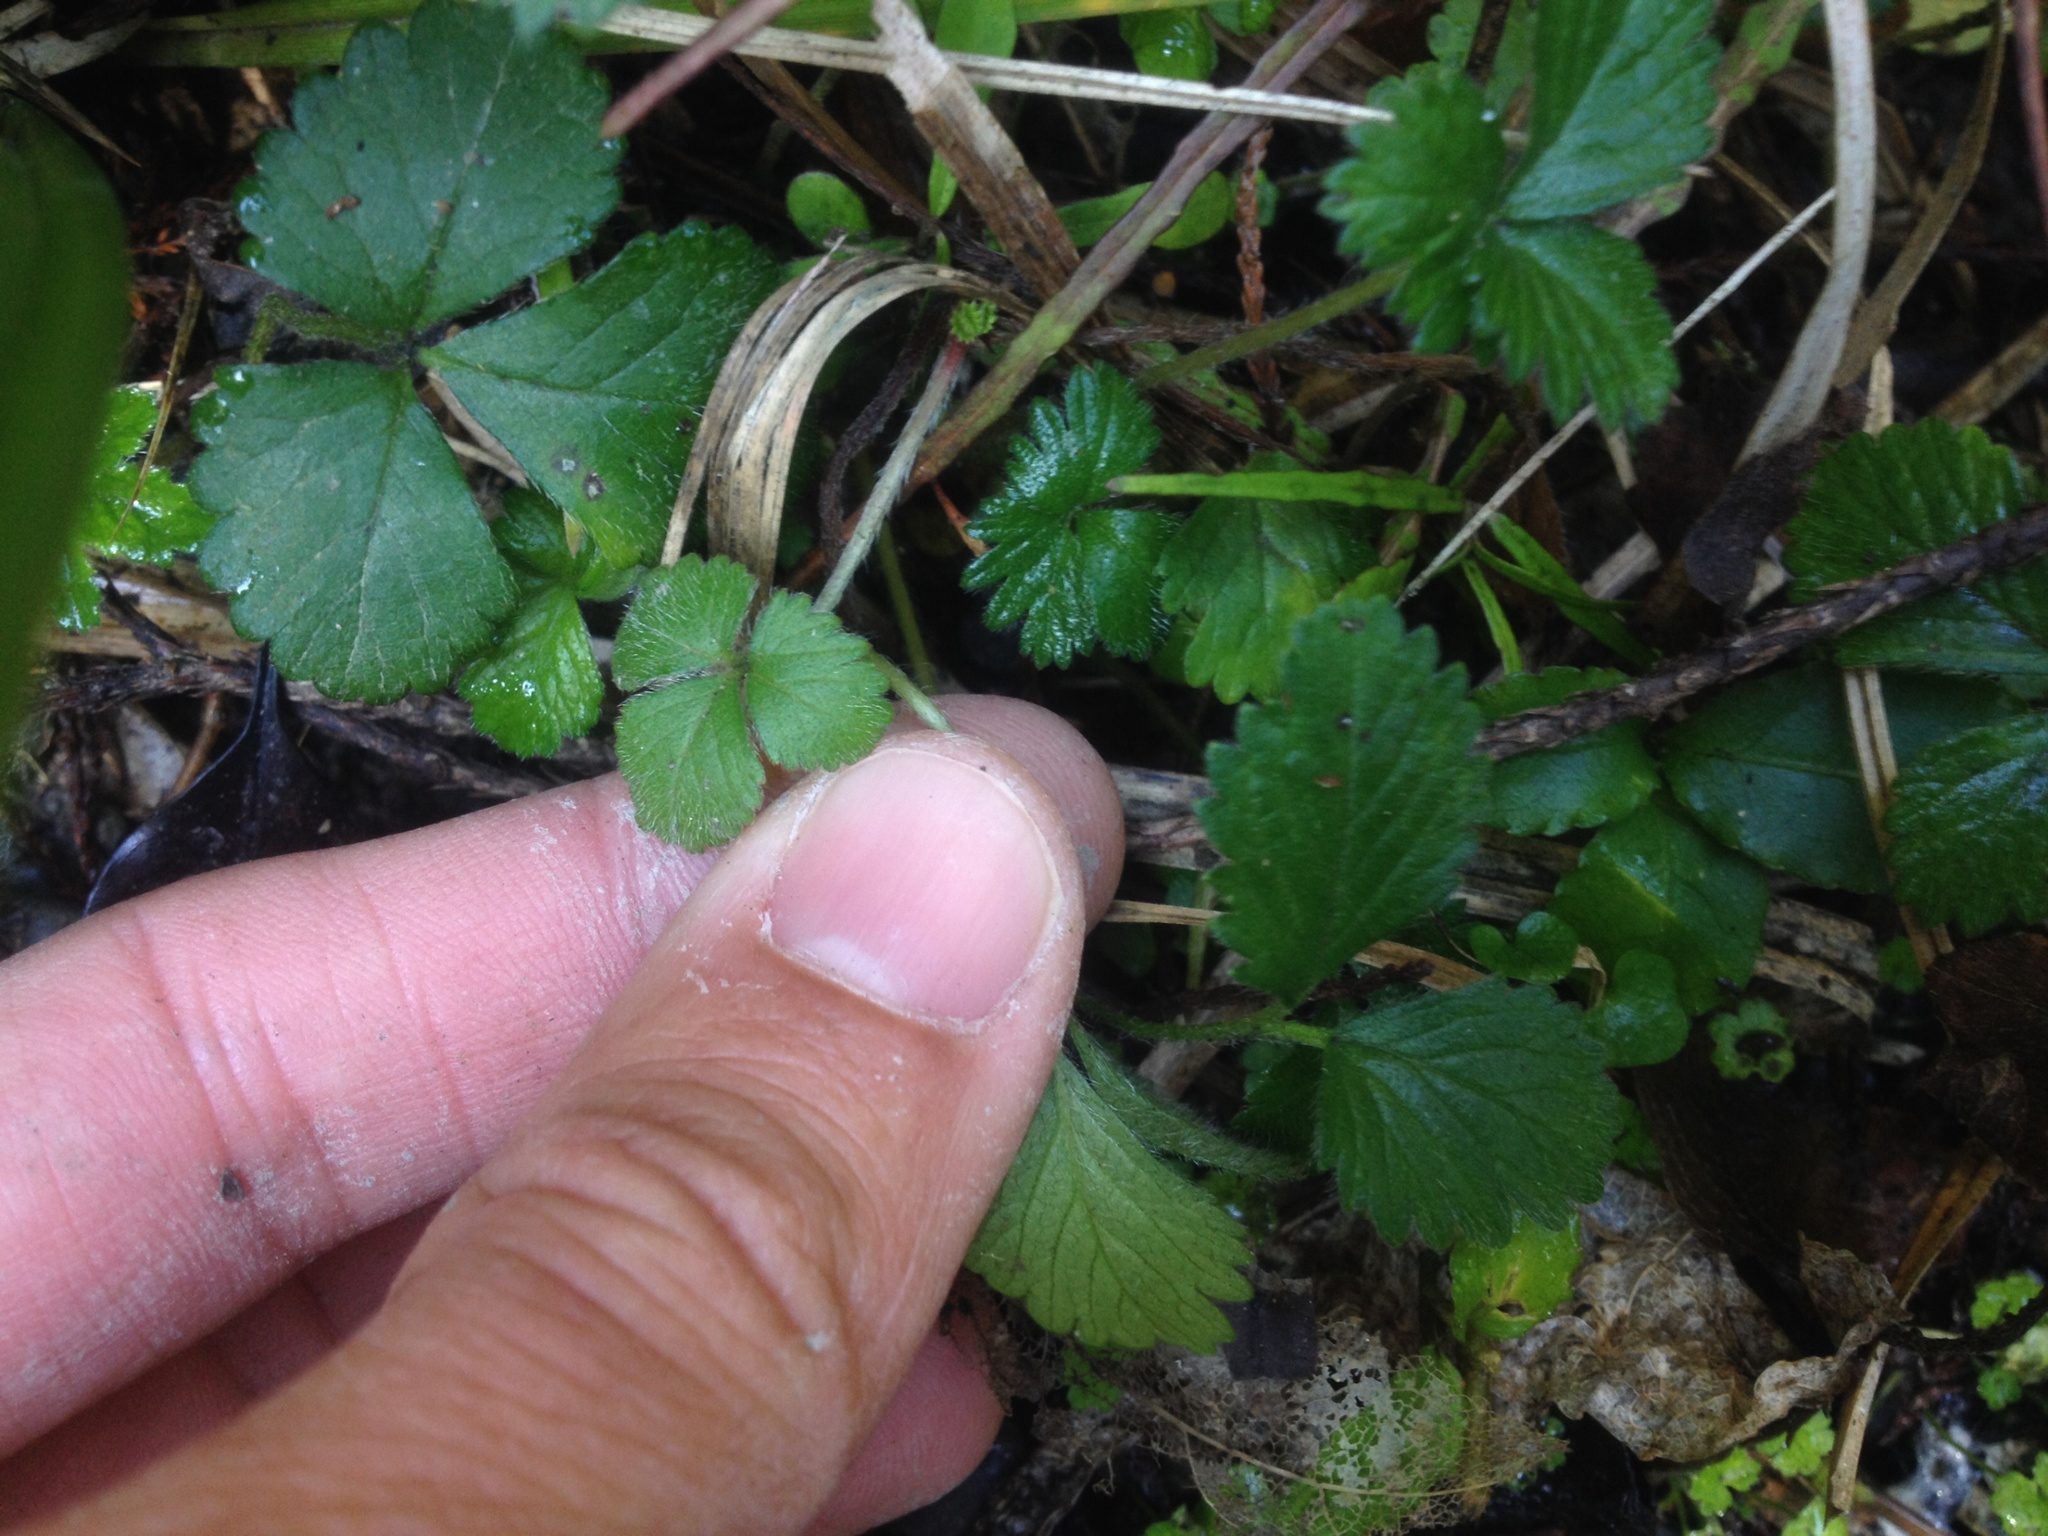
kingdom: Plantae
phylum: Tracheophyta
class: Magnoliopsida
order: Rosales
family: Rosaceae
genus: Potentilla
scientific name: Potentilla indica
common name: Yellow-flowered strawberry
